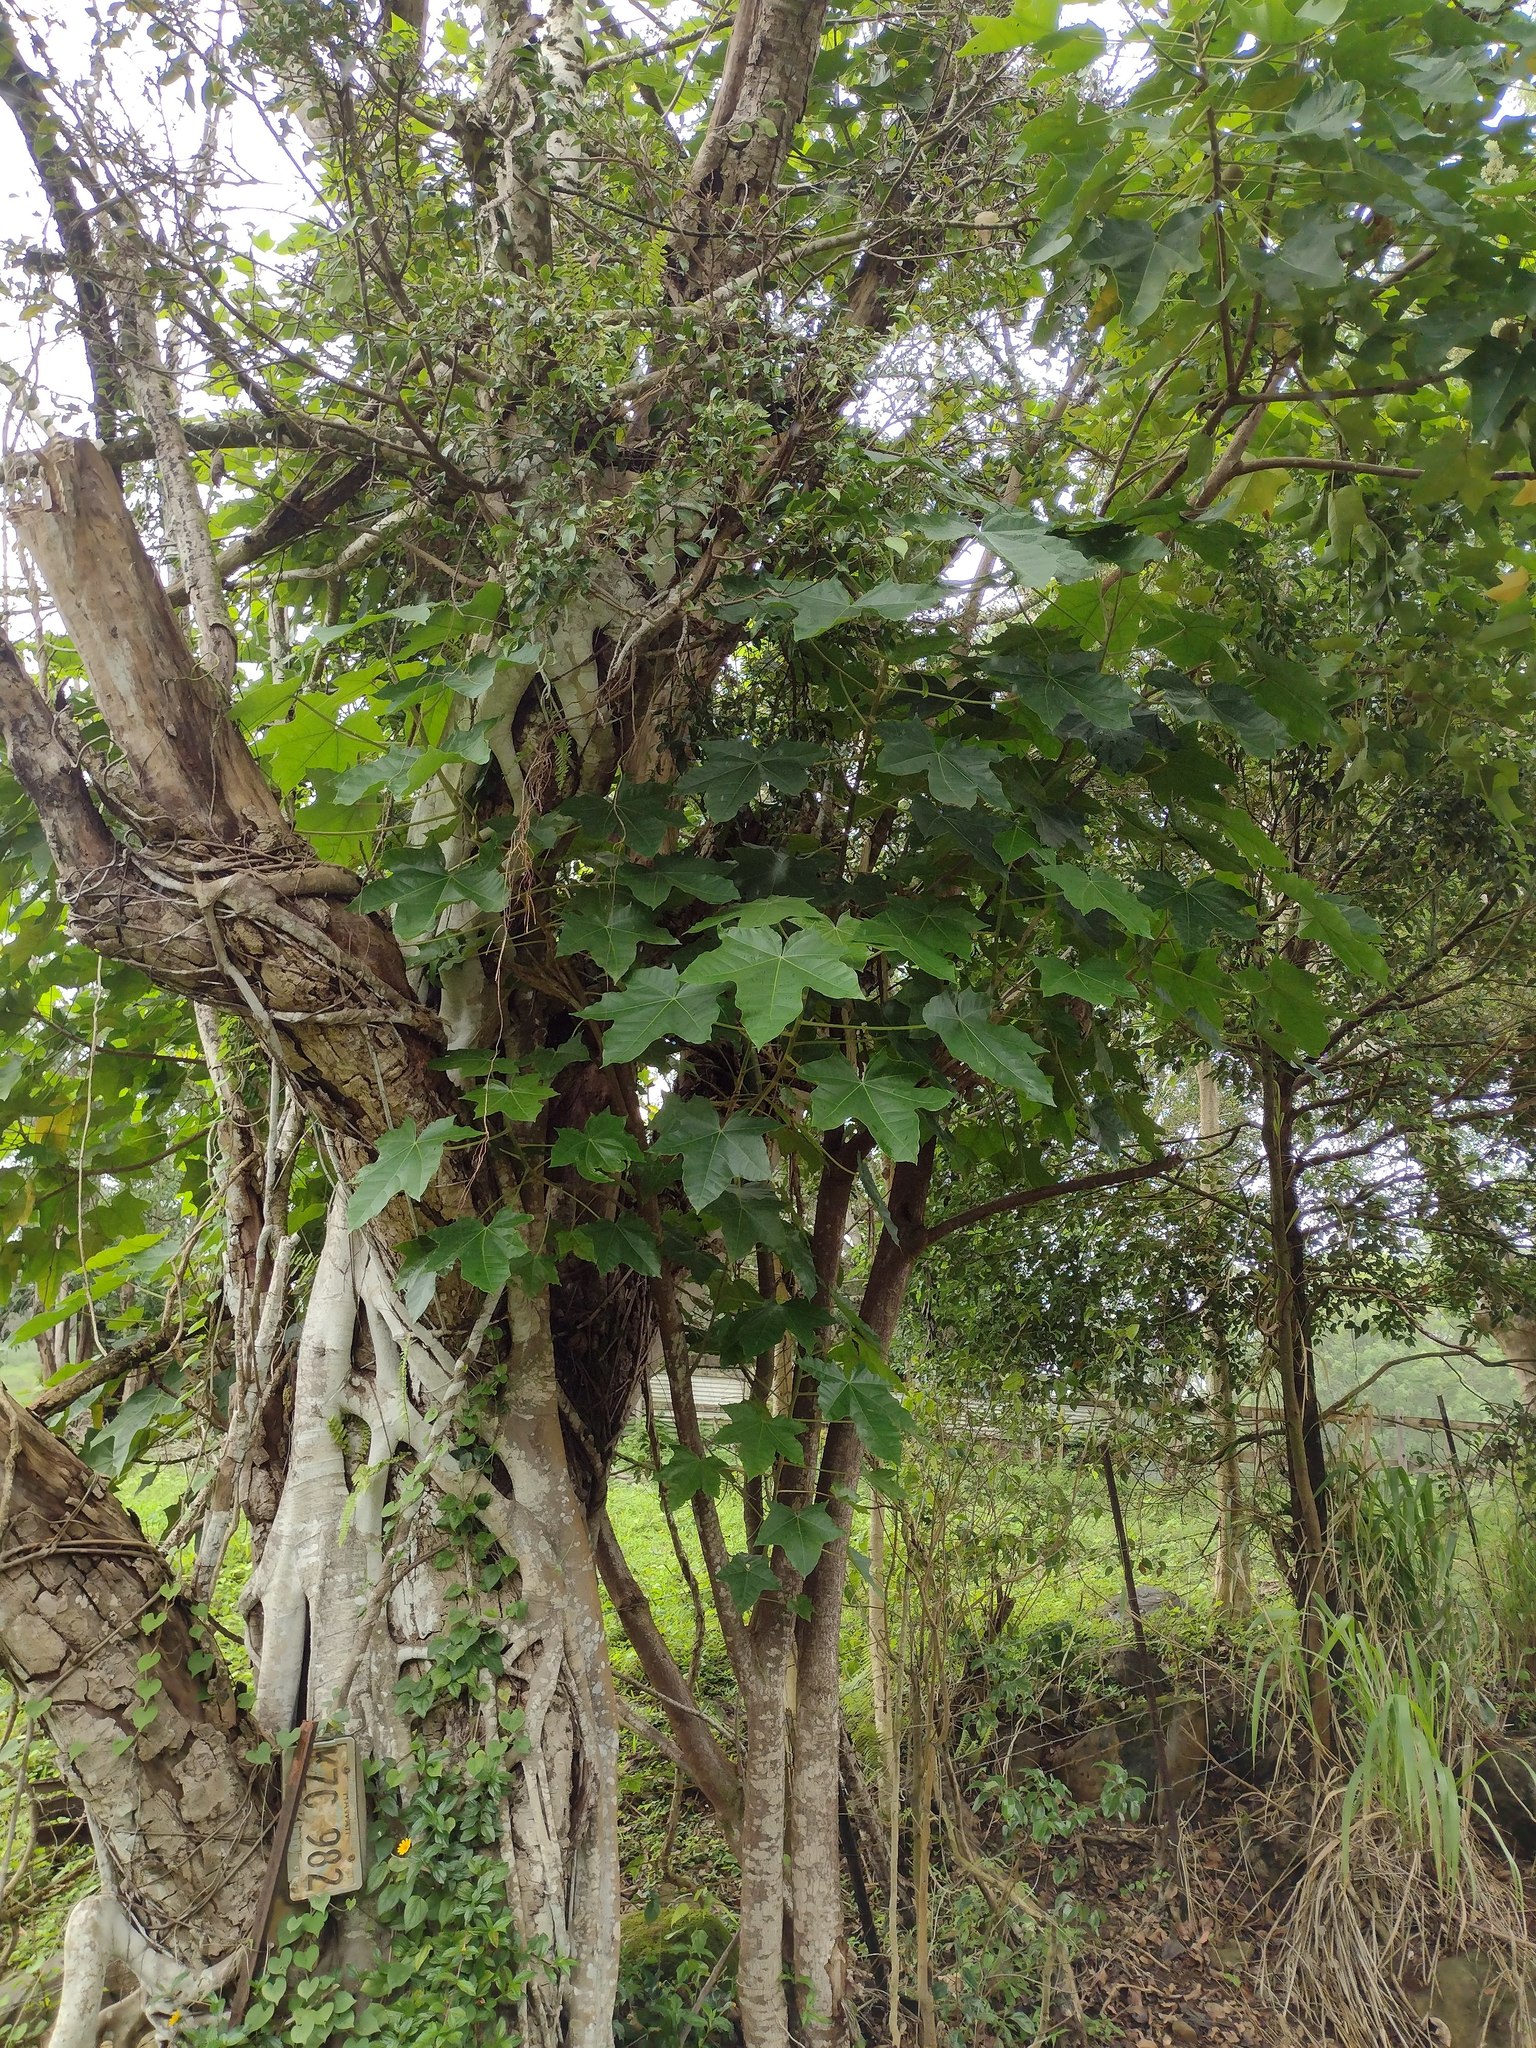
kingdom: Plantae
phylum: Tracheophyta
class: Magnoliopsida
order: Malpighiales
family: Euphorbiaceae
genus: Aleurites
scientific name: Aleurites moluccanus
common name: Candlenut tree
